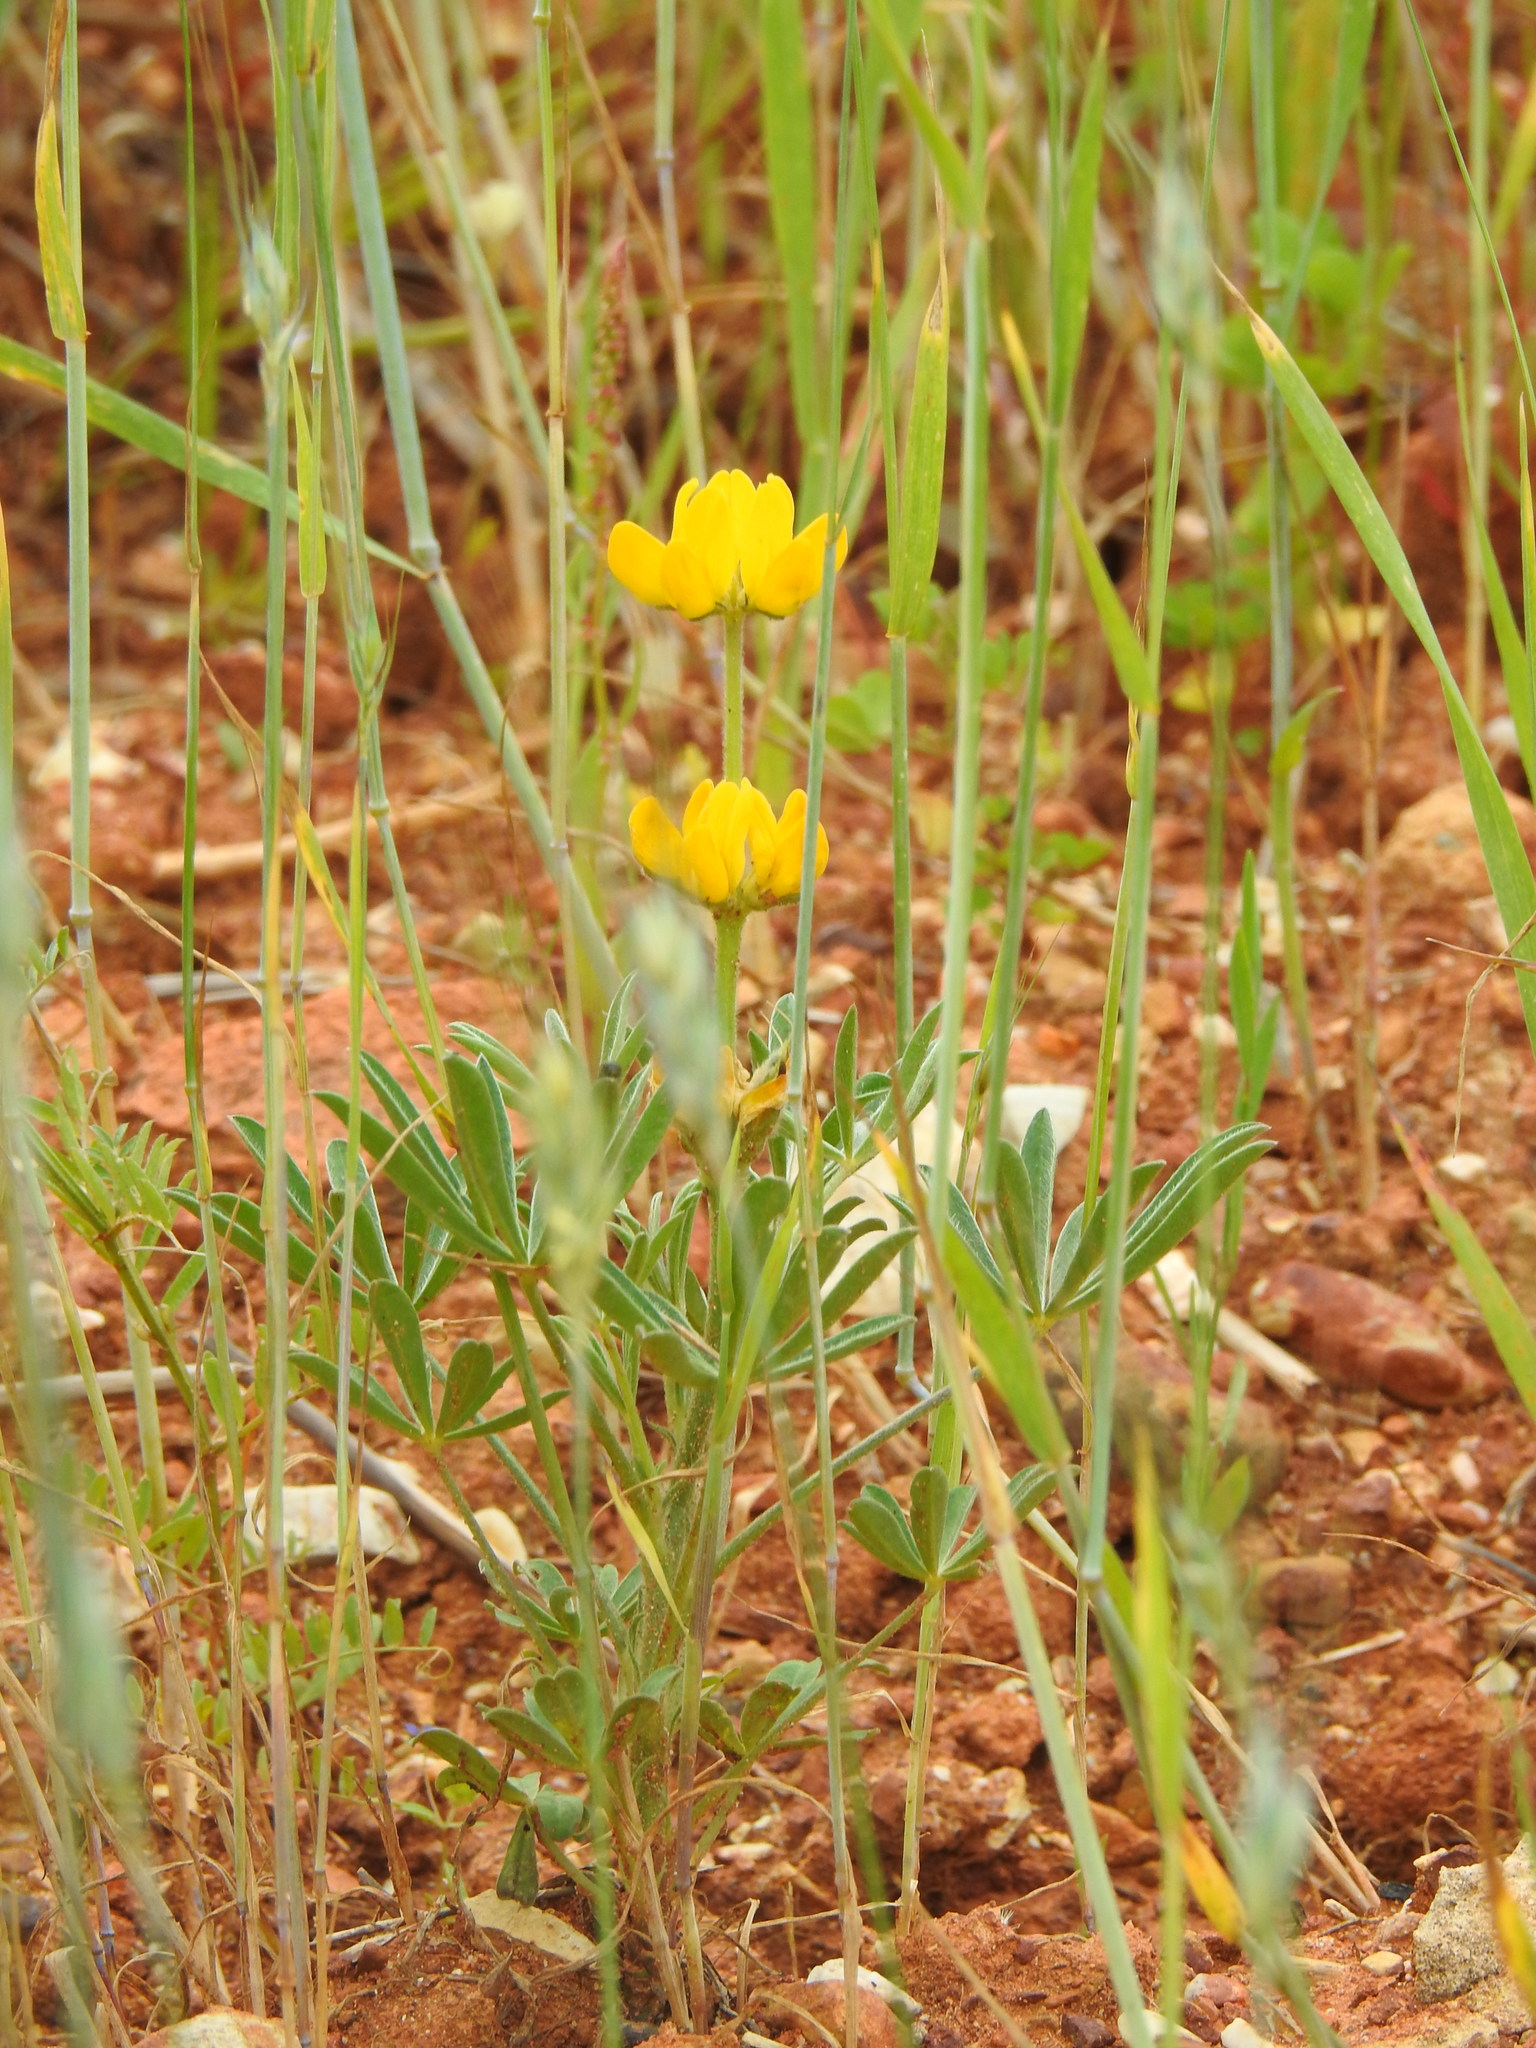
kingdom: Plantae
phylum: Tracheophyta
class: Magnoliopsida
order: Fabales
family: Fabaceae
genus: Lupinus
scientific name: Lupinus luteus
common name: European yellow lupine
